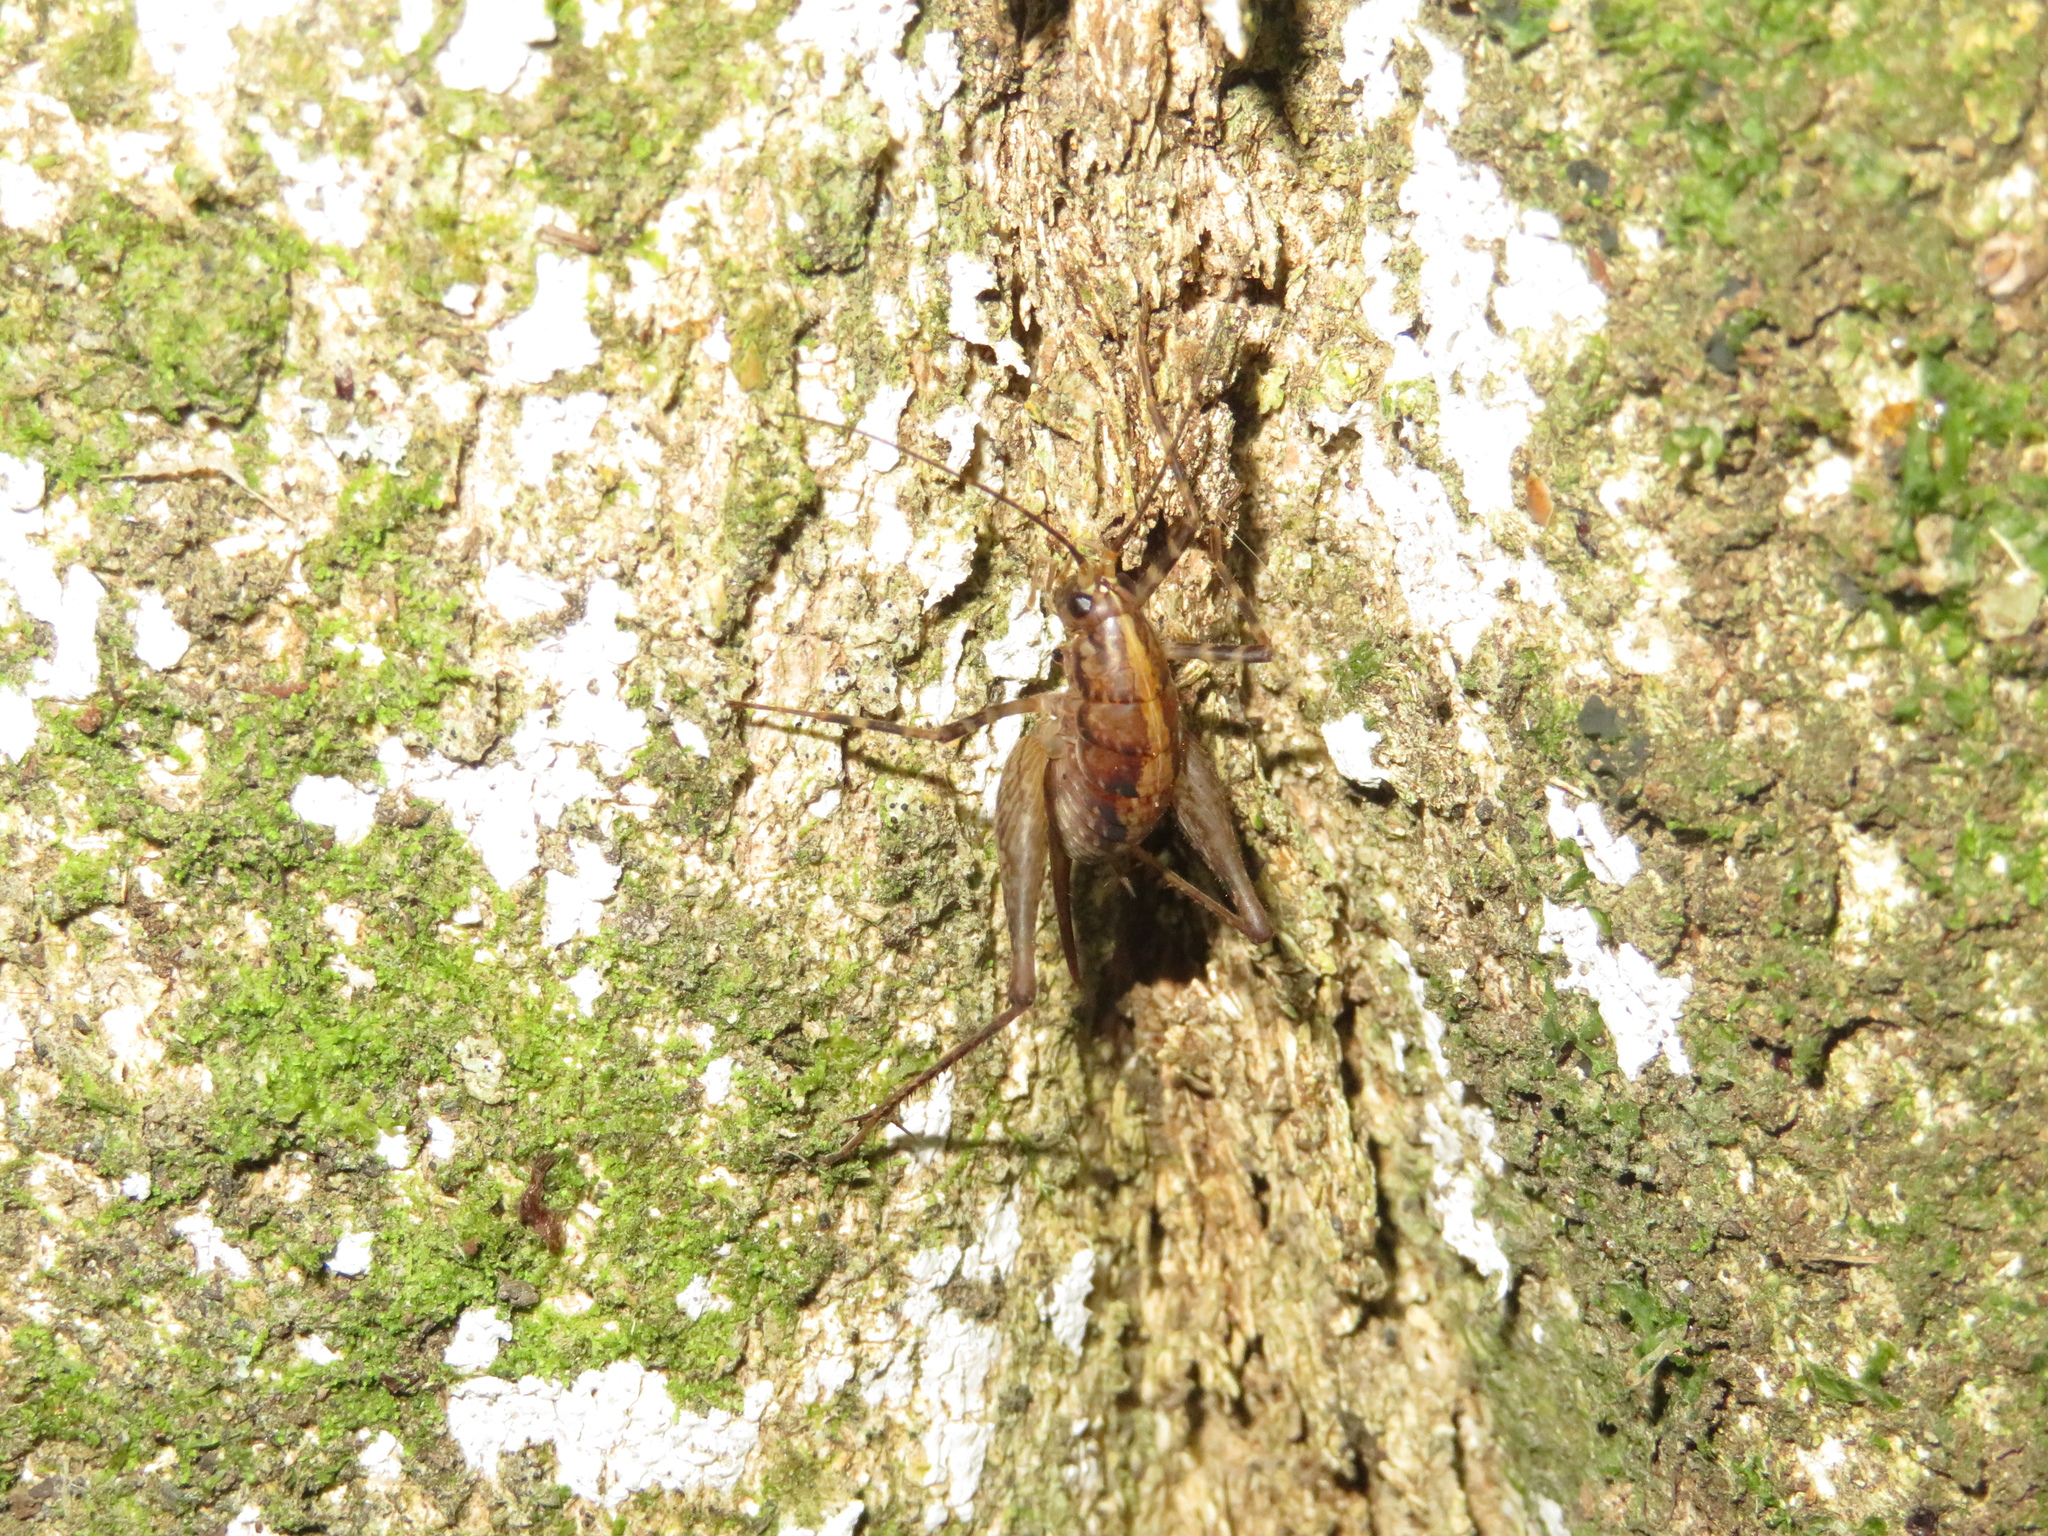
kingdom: Animalia
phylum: Arthropoda
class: Insecta
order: Orthoptera
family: Rhaphidophoridae
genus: Pleioplectron
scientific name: Pleioplectron hudsoni
